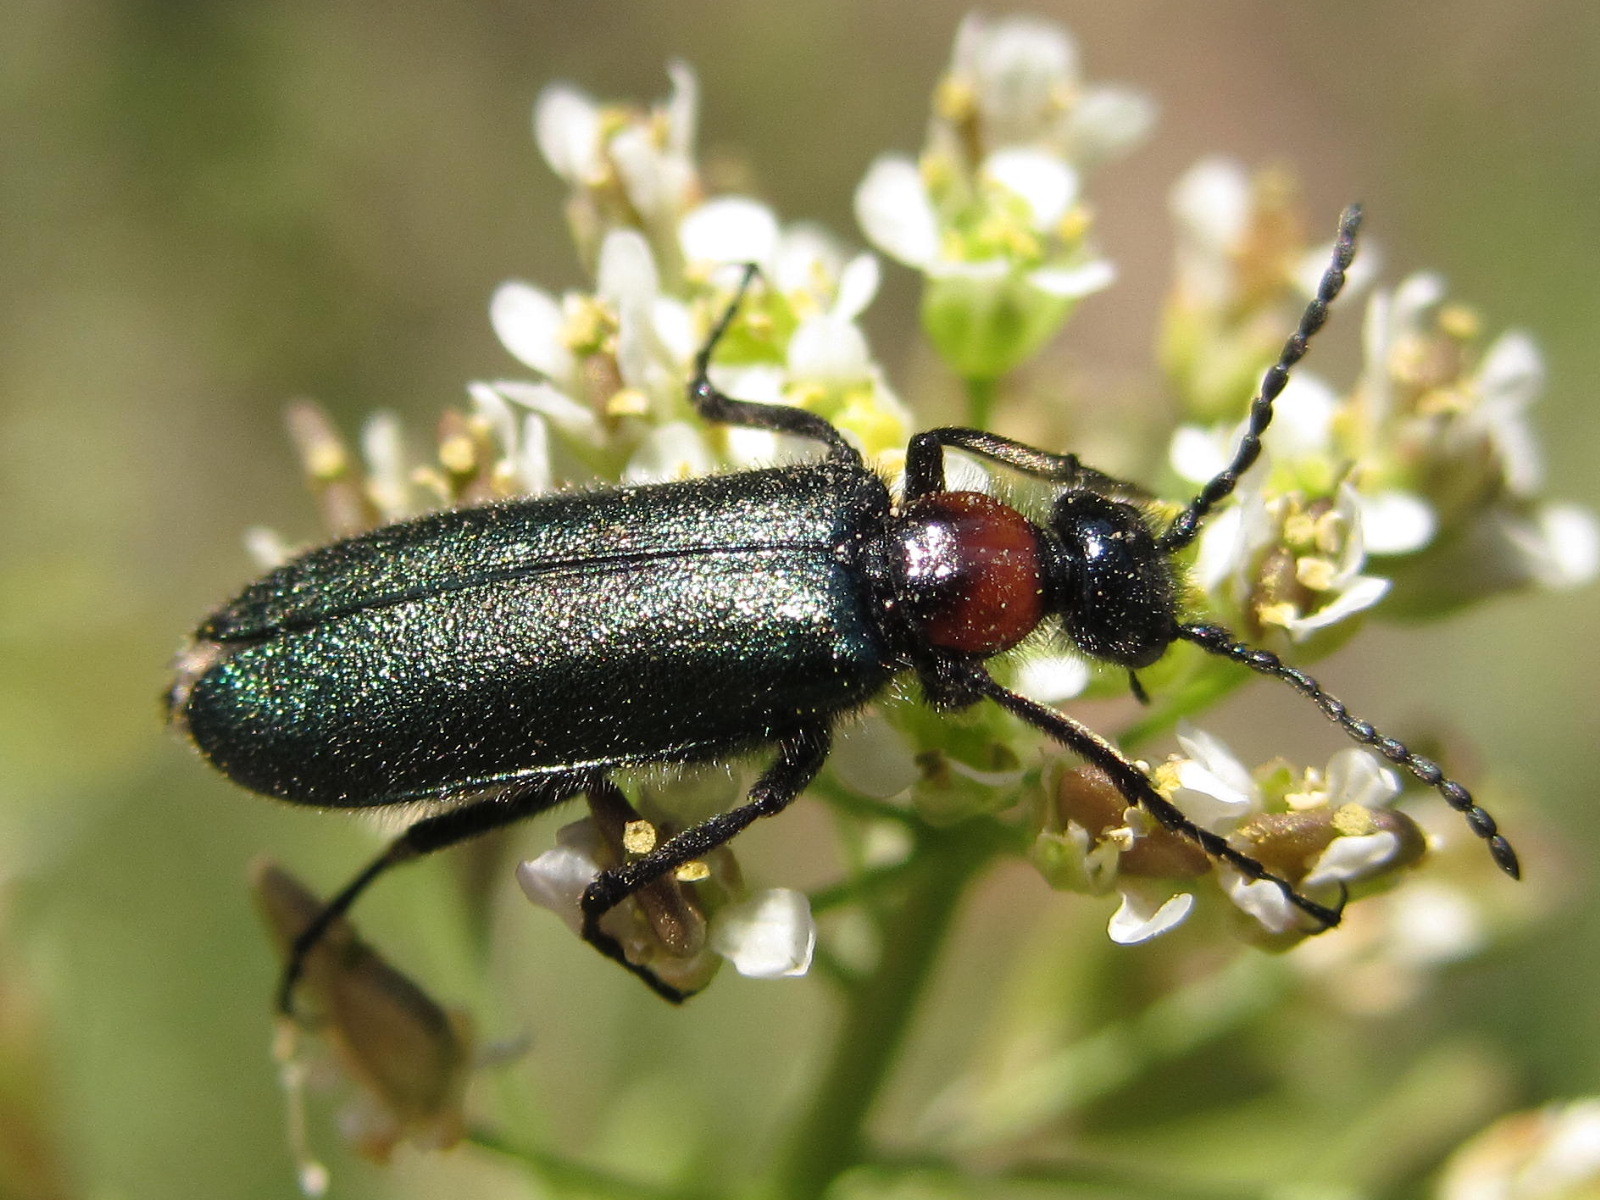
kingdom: Animalia
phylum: Arthropoda
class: Insecta
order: Coleoptera
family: Meloidae
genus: Alosimus
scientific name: Alosimus syriacus
